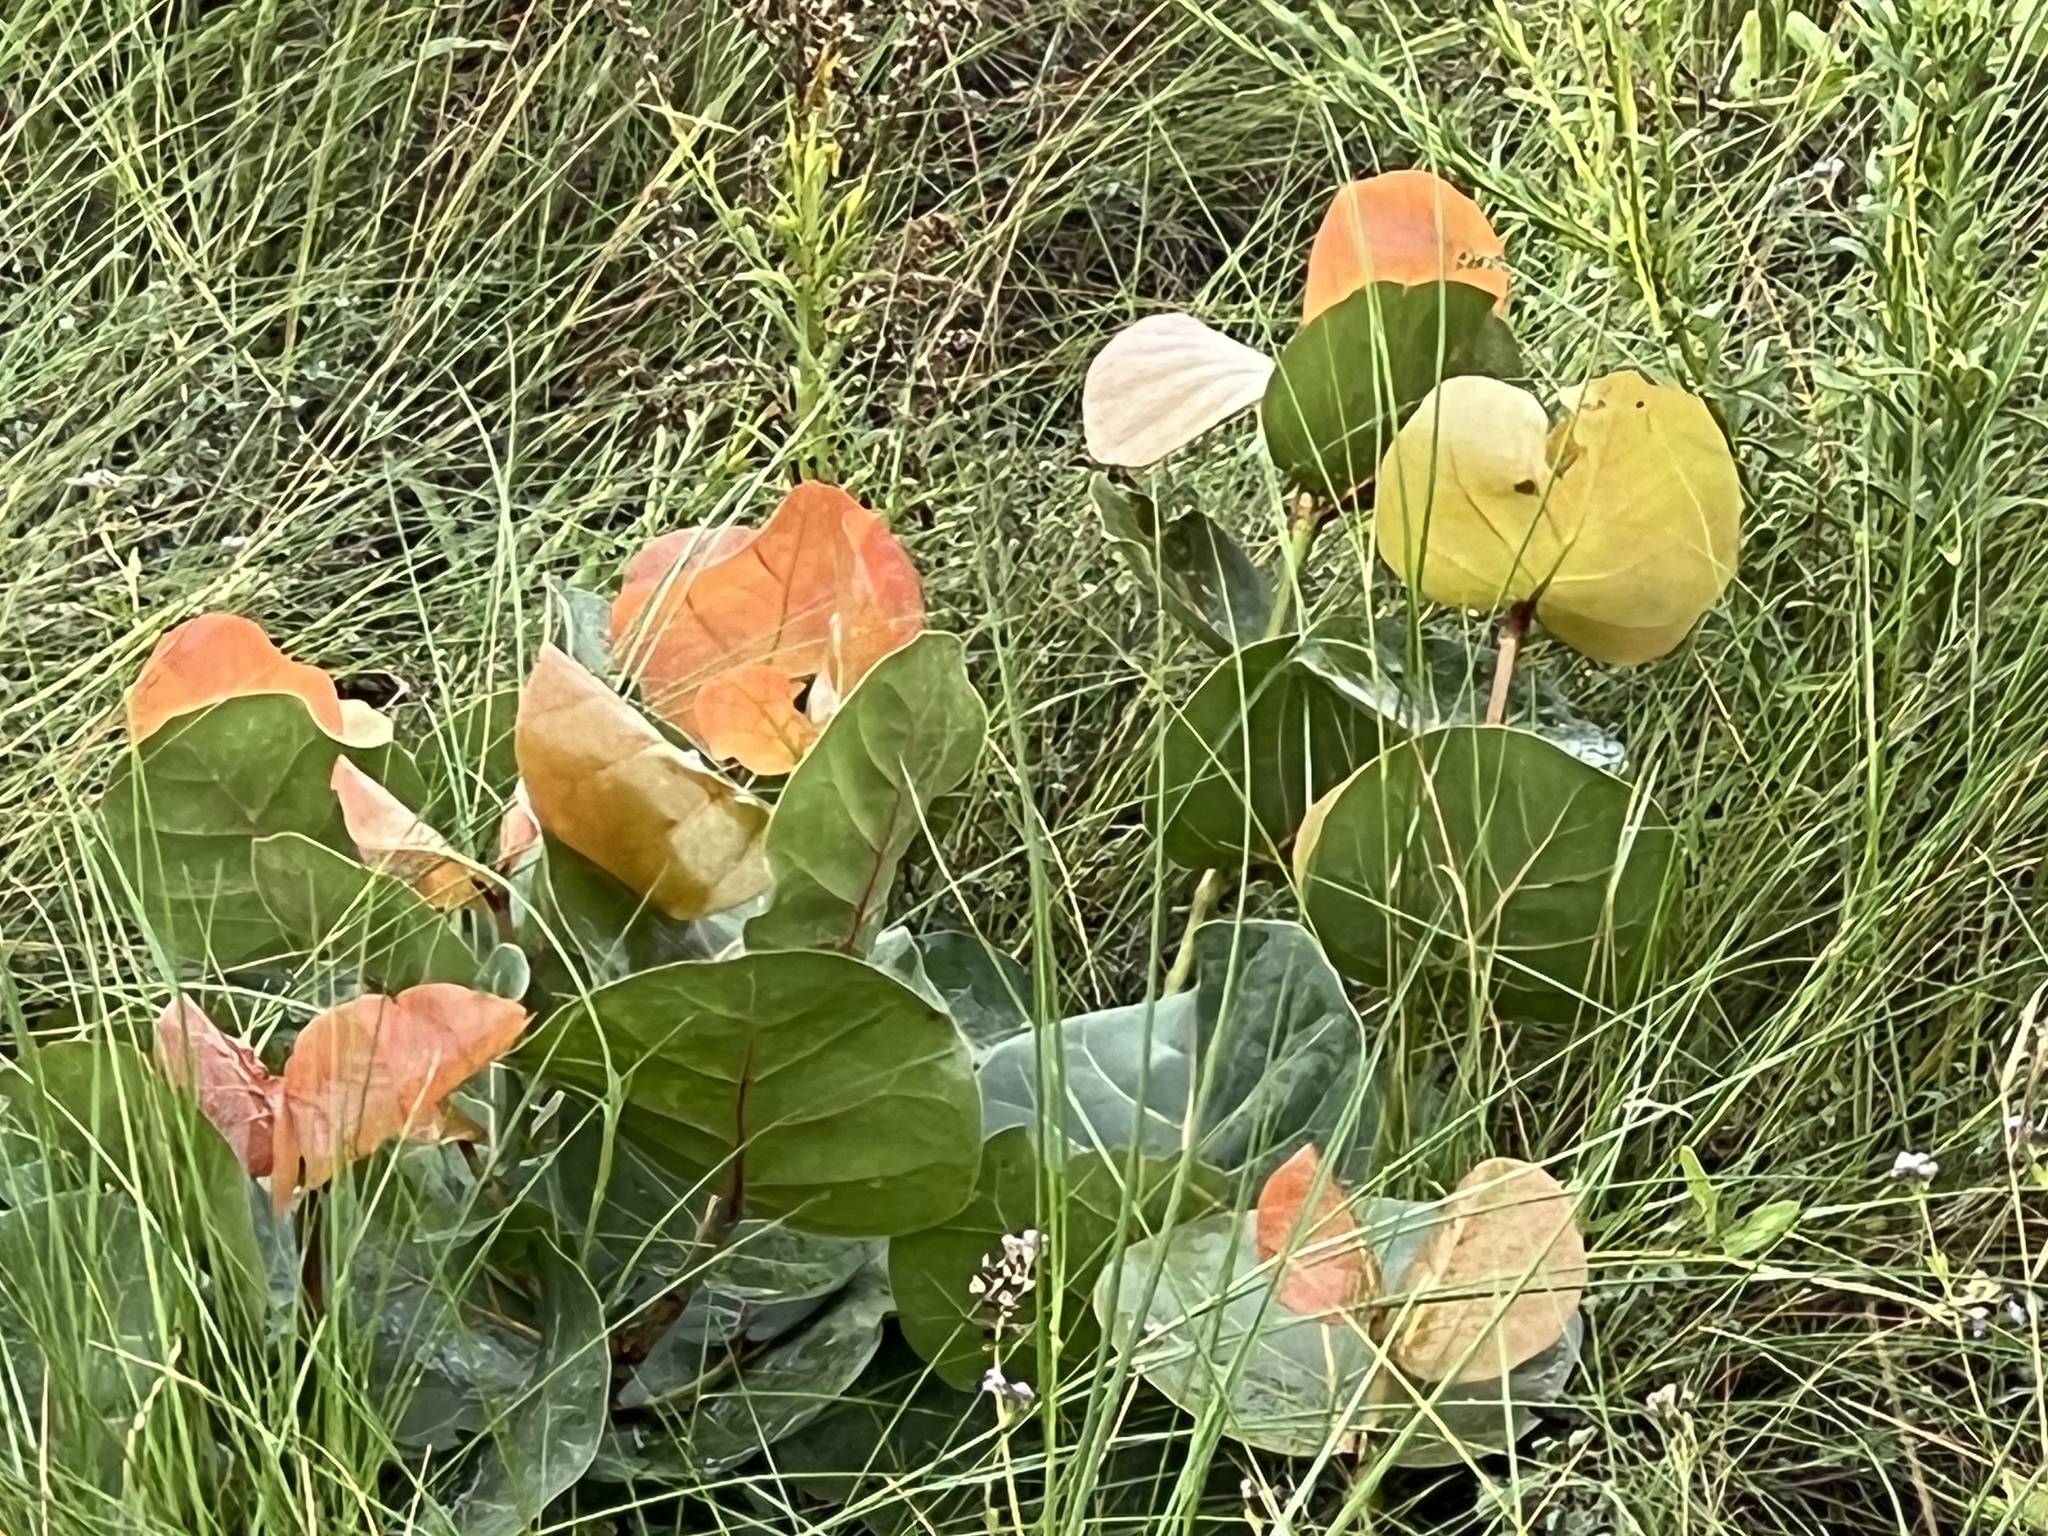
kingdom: Plantae
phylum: Tracheophyta
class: Magnoliopsida
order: Caryophyllales
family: Polygonaceae
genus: Coccoloba
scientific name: Coccoloba uvifera
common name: Seagrape
